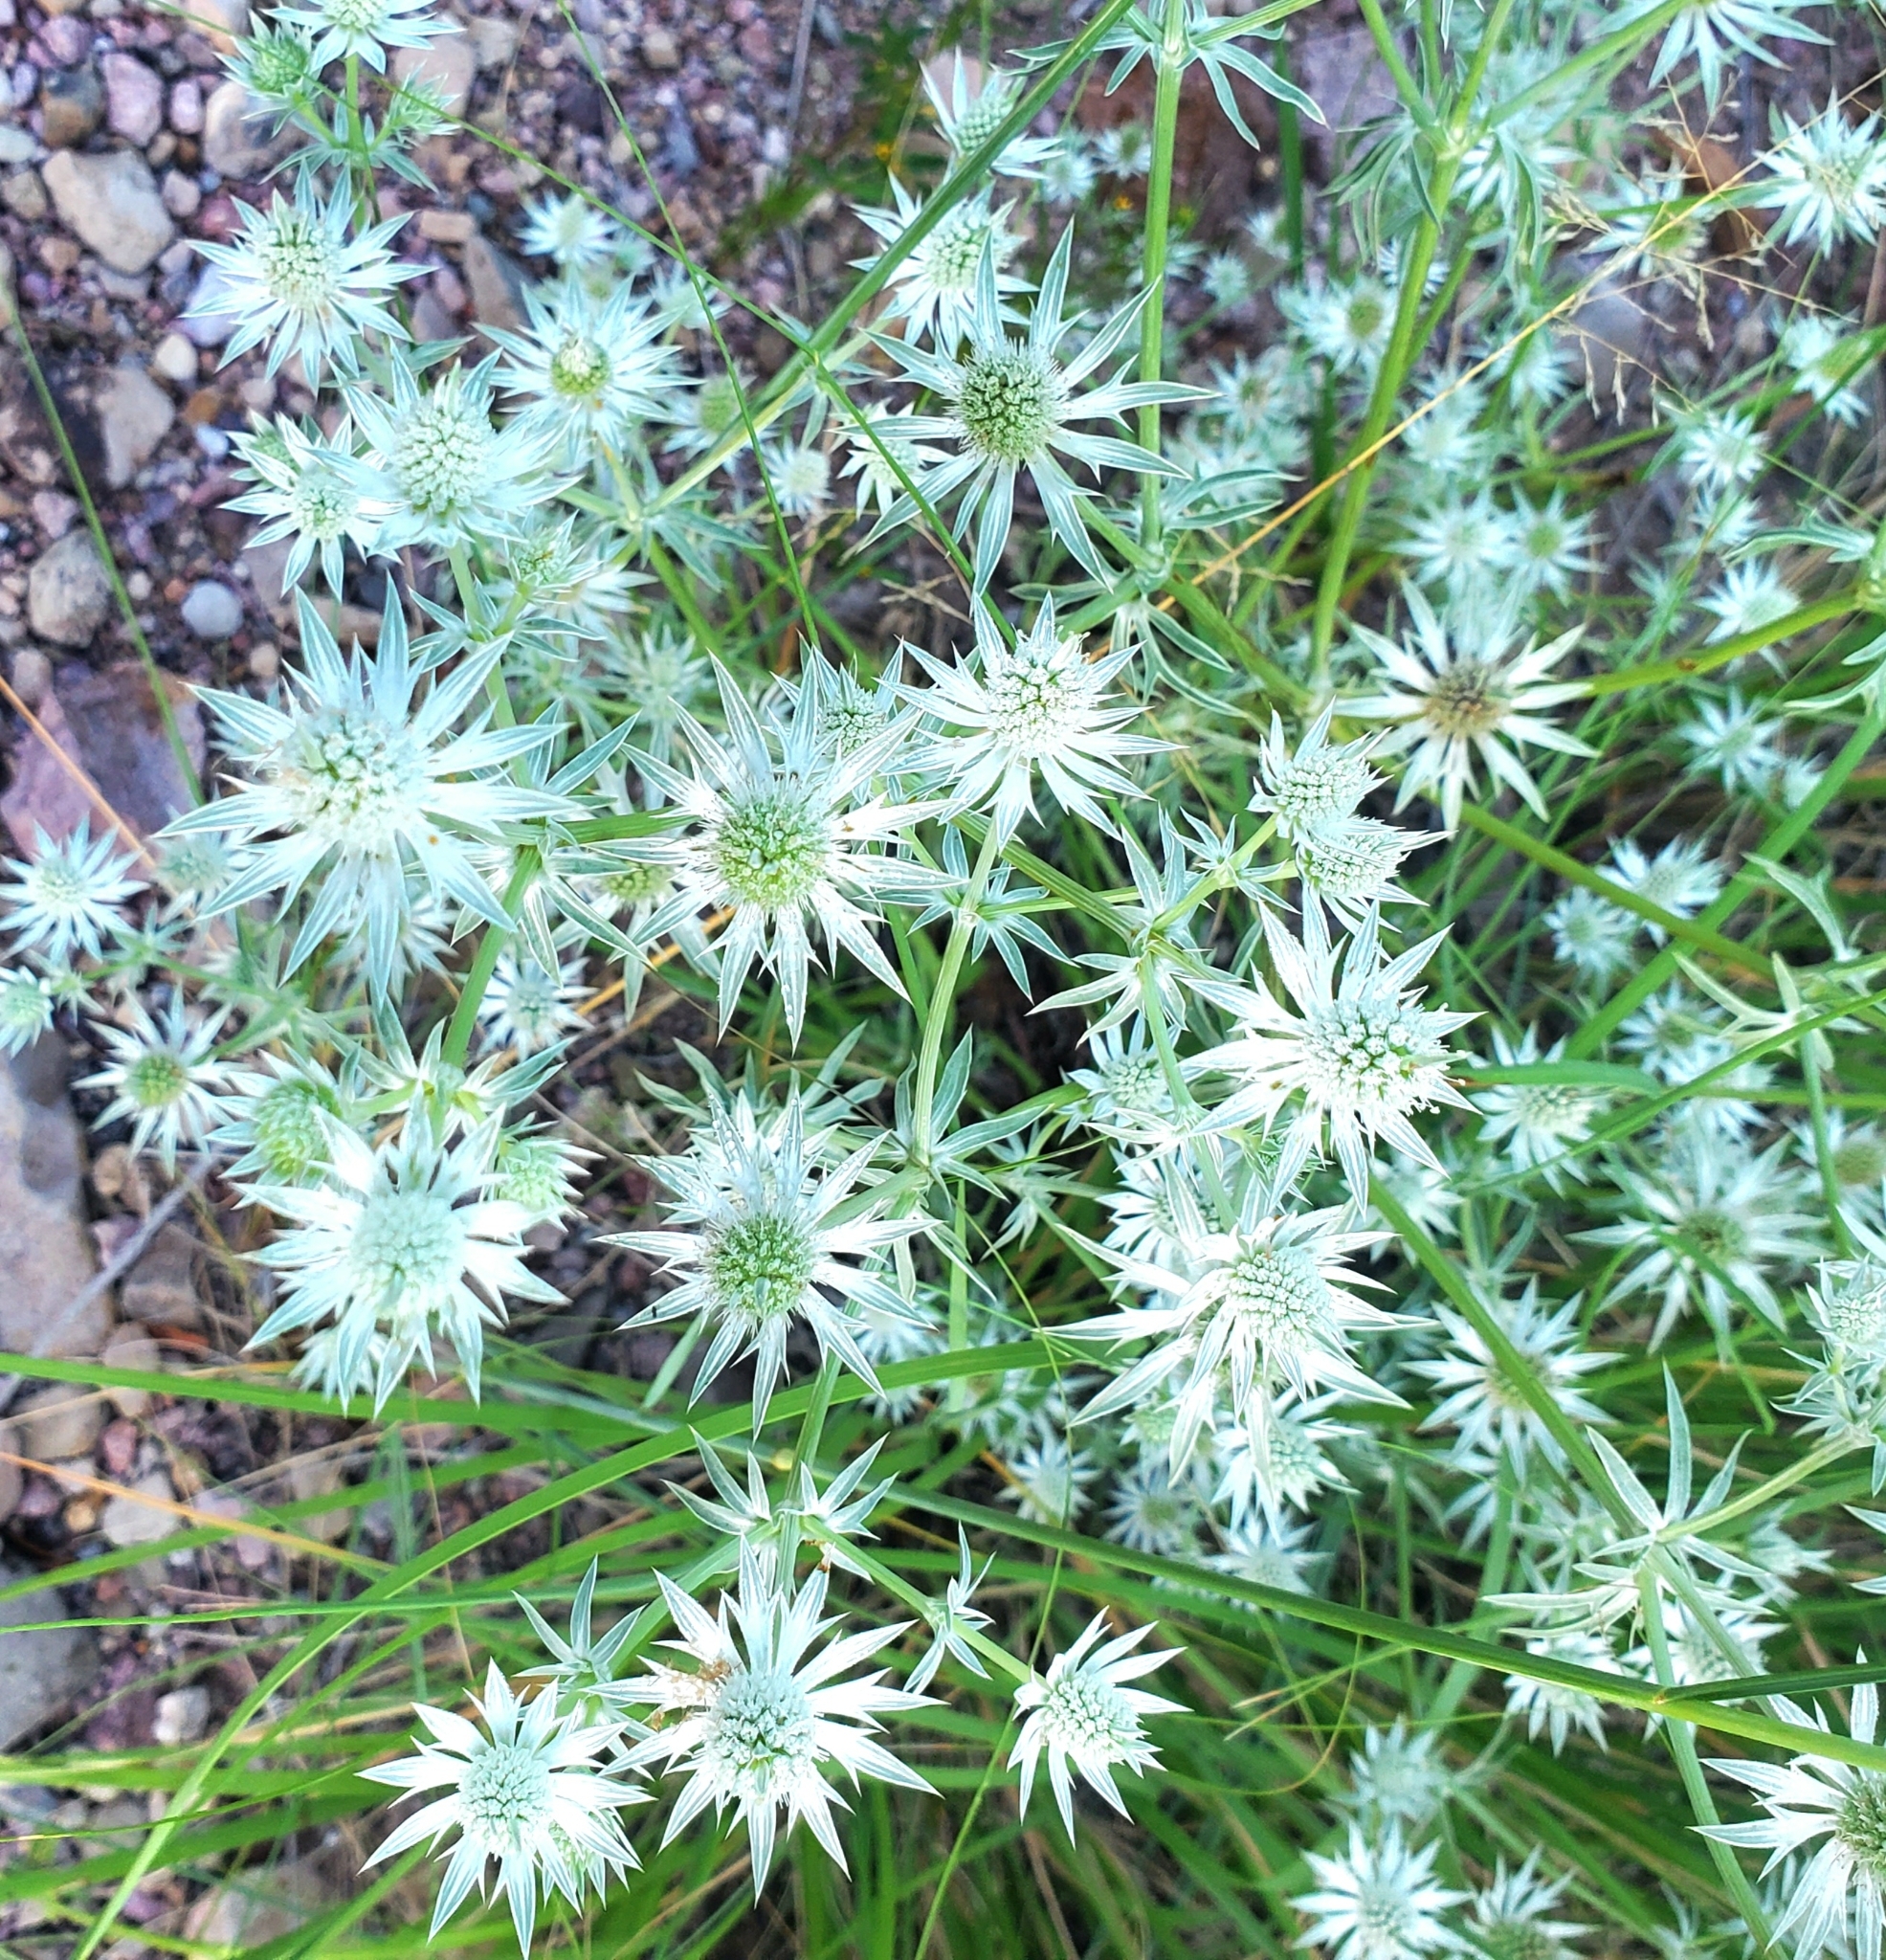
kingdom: Plantae
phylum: Tracheophyta
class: Magnoliopsida
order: Apiales
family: Apiaceae
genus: Eryngium
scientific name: Eryngium heterophyllum
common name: Mexican thistle
